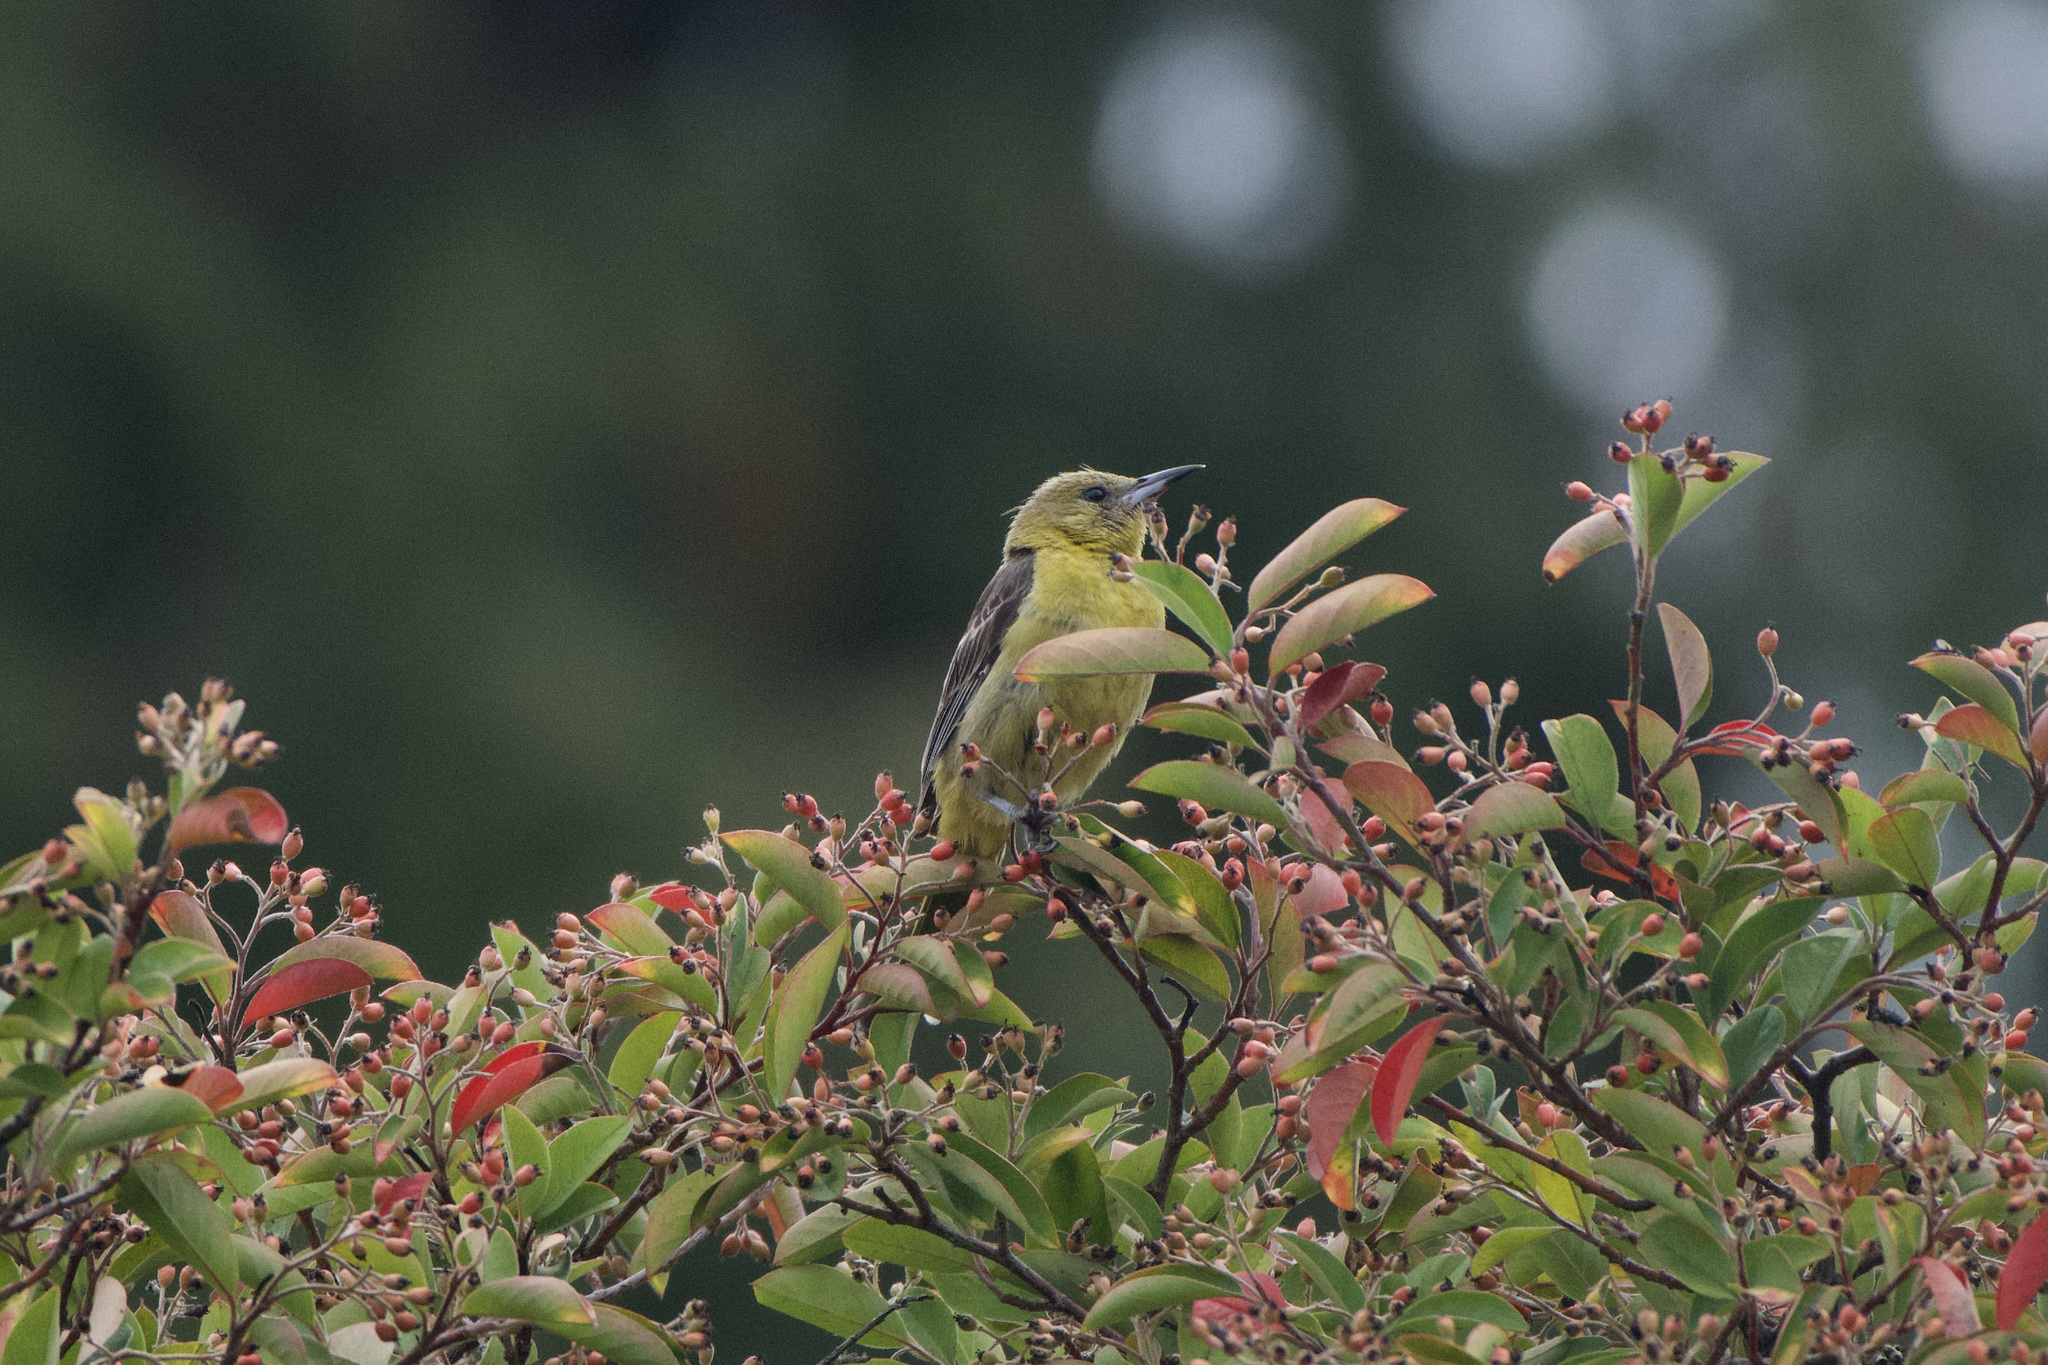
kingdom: Animalia
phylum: Chordata
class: Aves
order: Passeriformes
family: Icteridae
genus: Icterus
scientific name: Icterus cucullatus
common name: Hooded oriole
